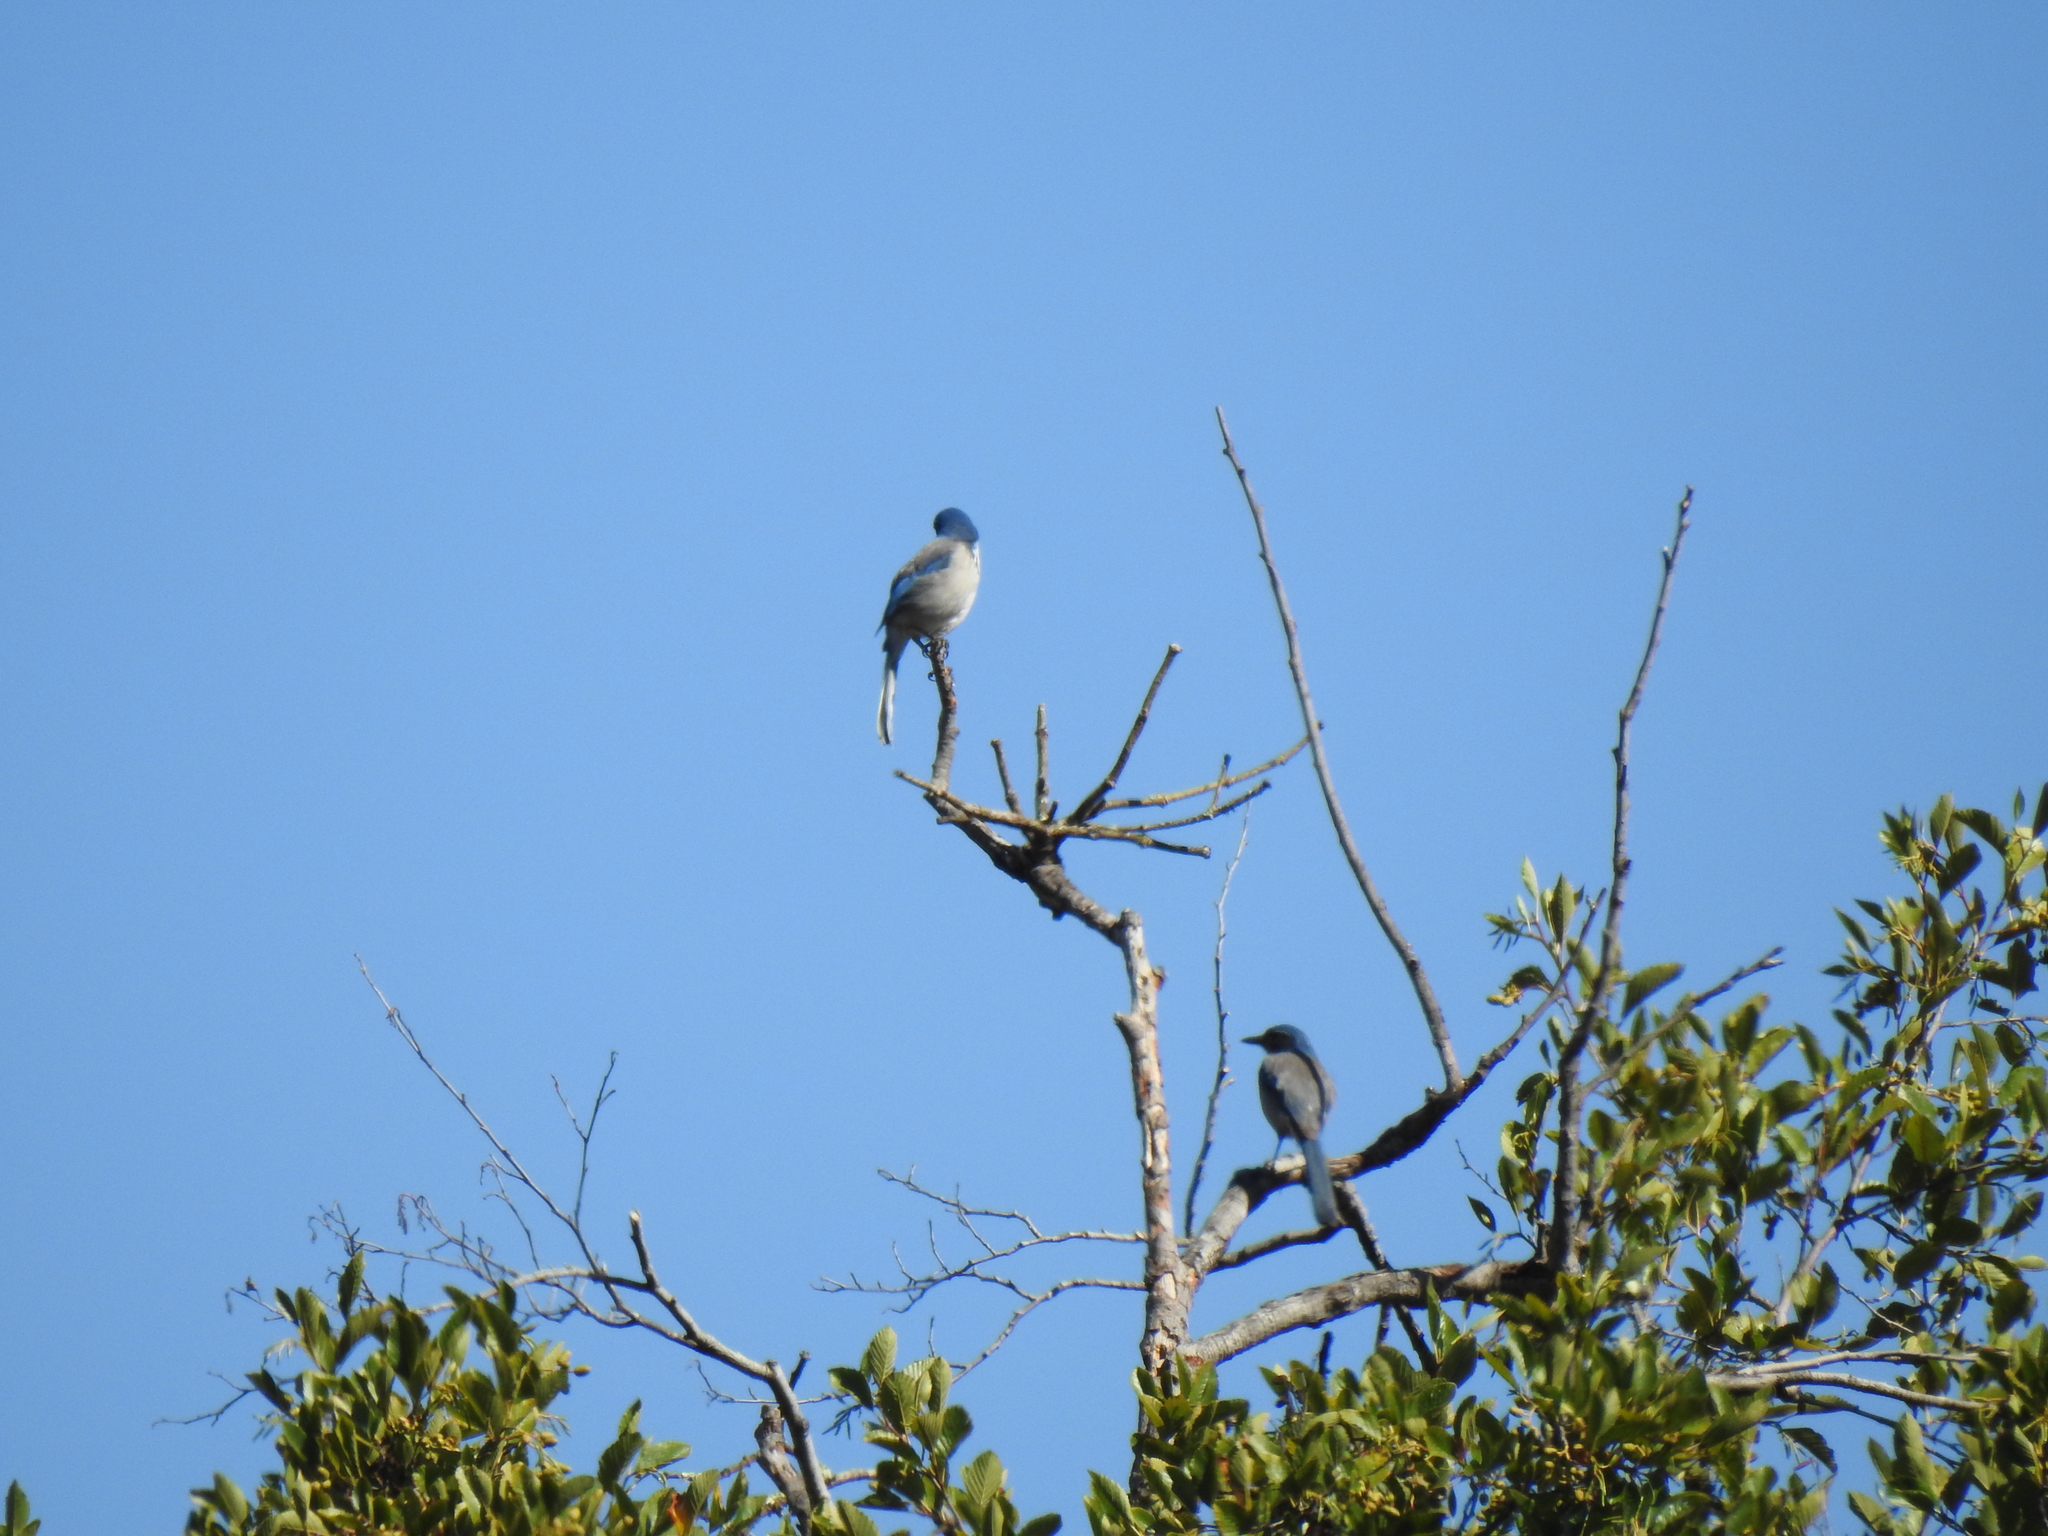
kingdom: Animalia
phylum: Chordata
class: Aves
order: Passeriformes
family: Corvidae
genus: Aphelocoma
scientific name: Aphelocoma californica
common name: California scrub-jay
